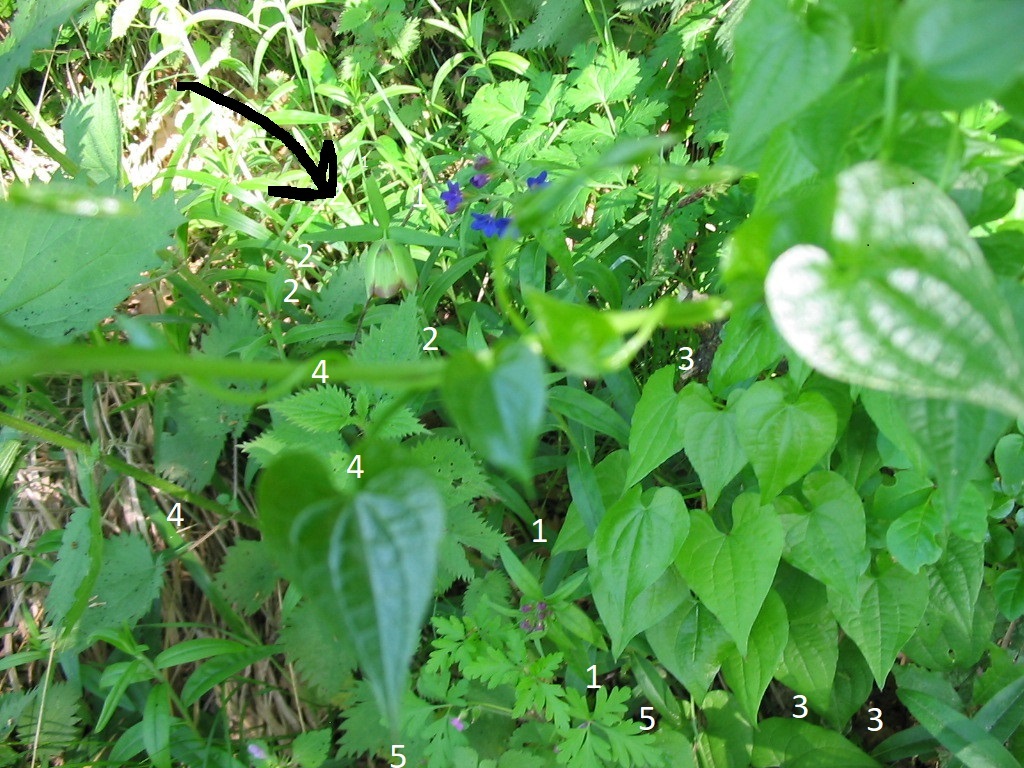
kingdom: Plantae
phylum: Tracheophyta
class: Magnoliopsida
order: Boraginales
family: Boraginaceae
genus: Aegonychon
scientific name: Aegonychon purpurocaeruleum
